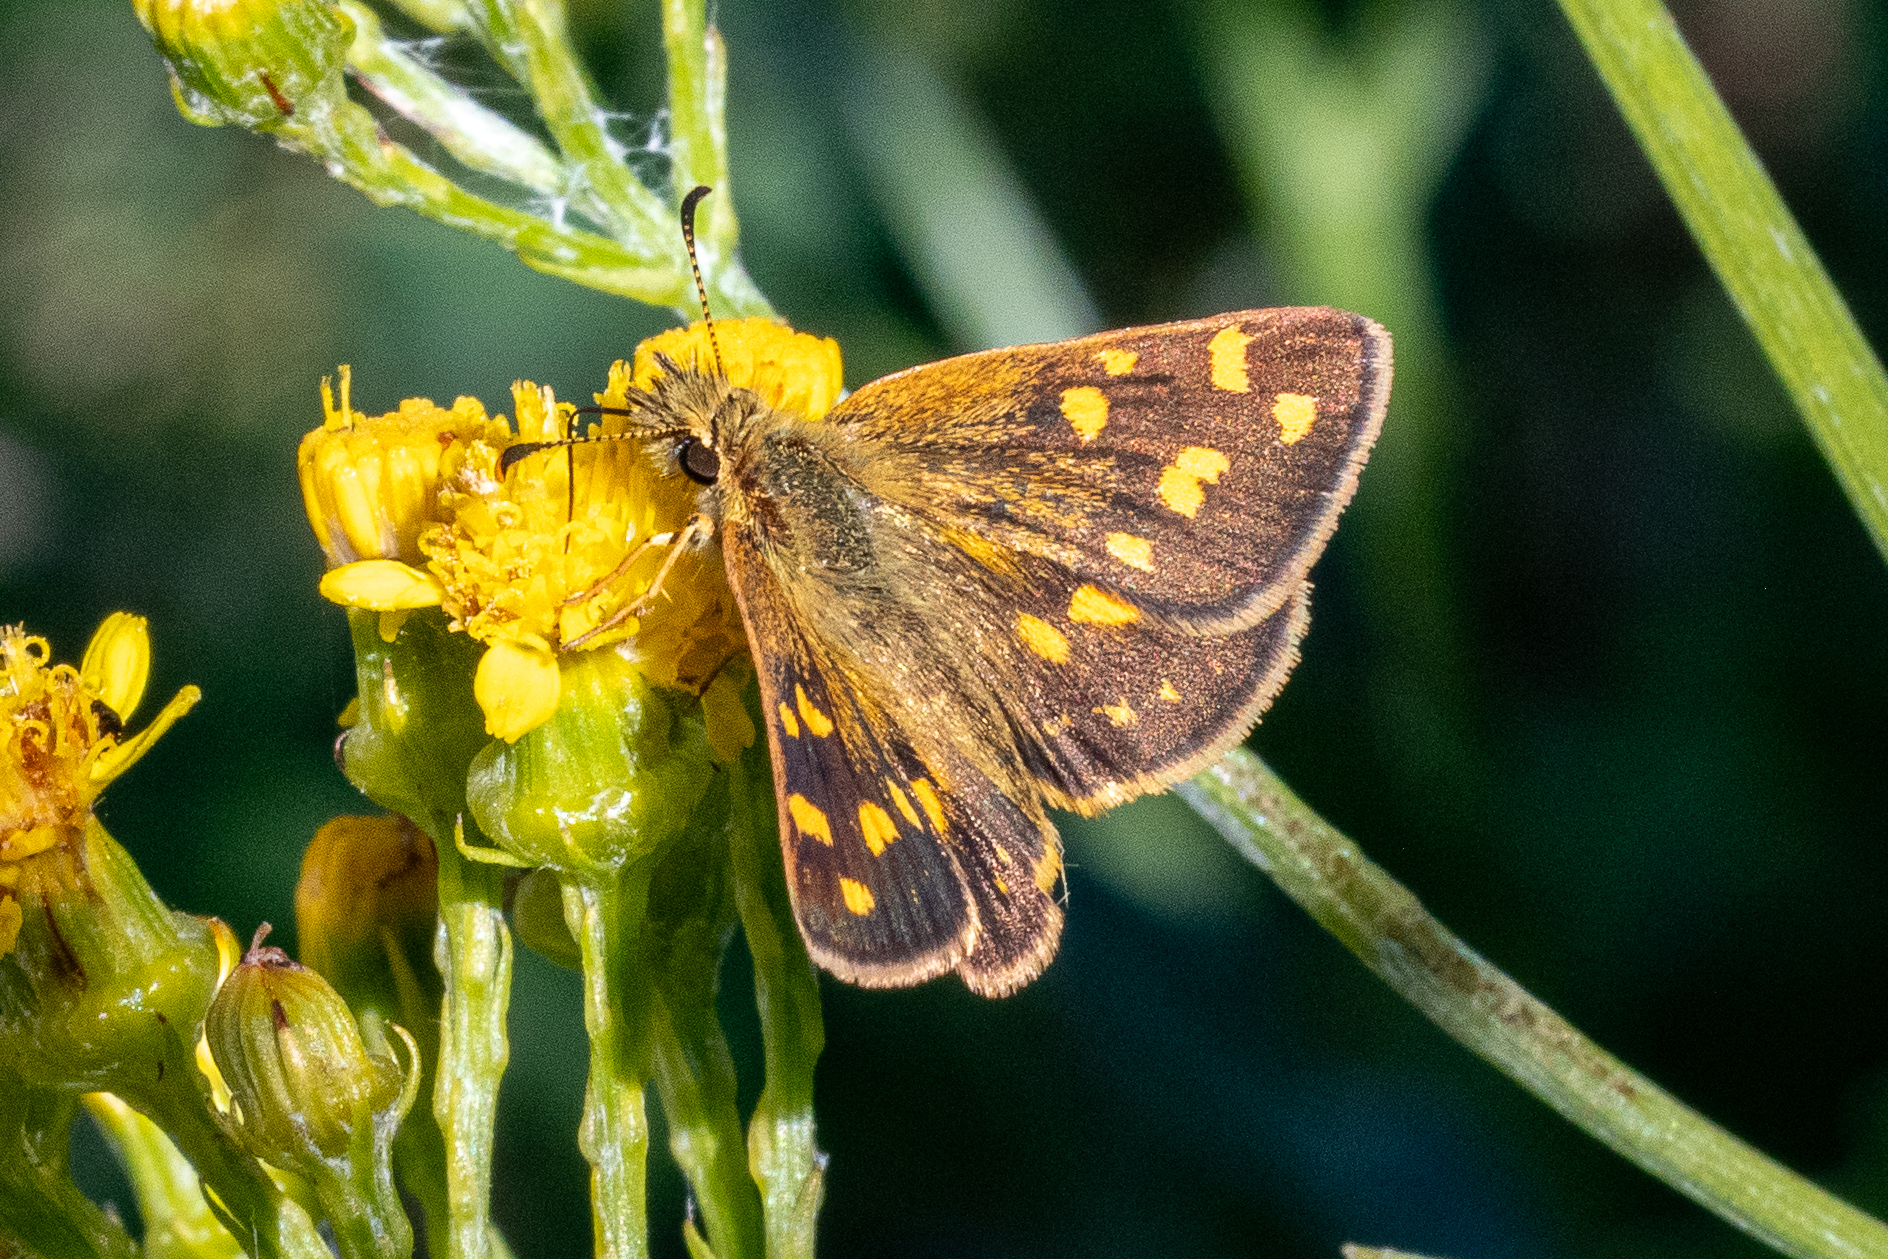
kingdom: Animalia
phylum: Arthropoda
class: Insecta
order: Lepidoptera
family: Hesperiidae
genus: Metisella
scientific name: Metisella malgacha
